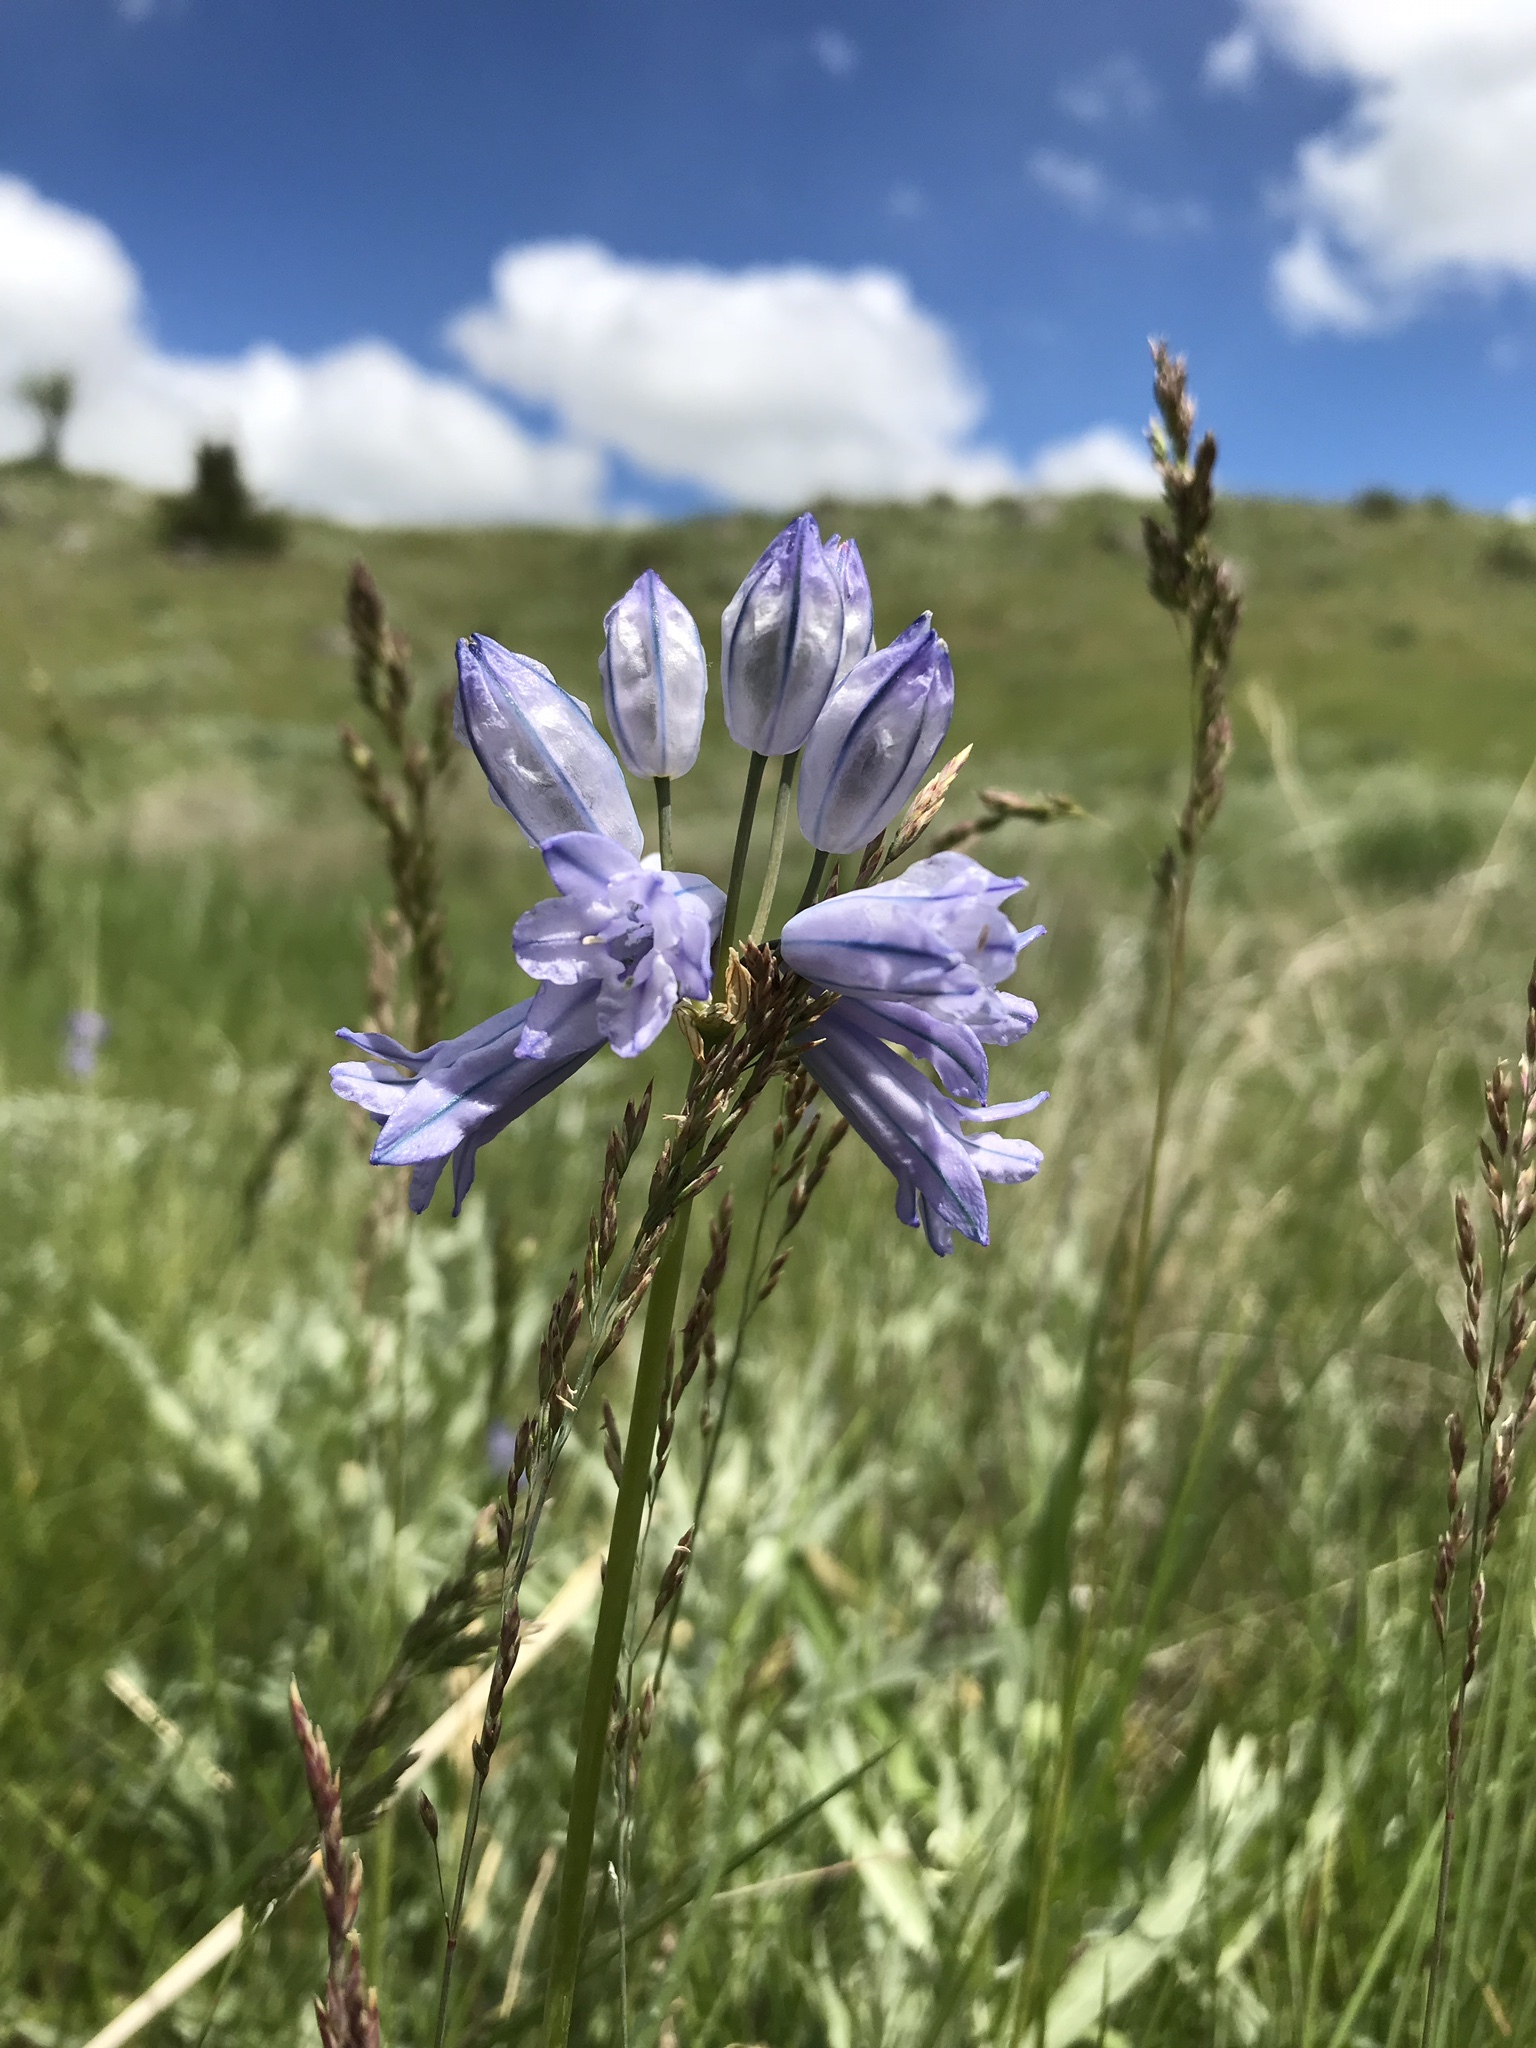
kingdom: Plantae
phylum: Tracheophyta
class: Liliopsida
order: Asparagales
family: Asparagaceae
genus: Triteleia
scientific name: Triteleia grandiflora
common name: Wild hyacinth
